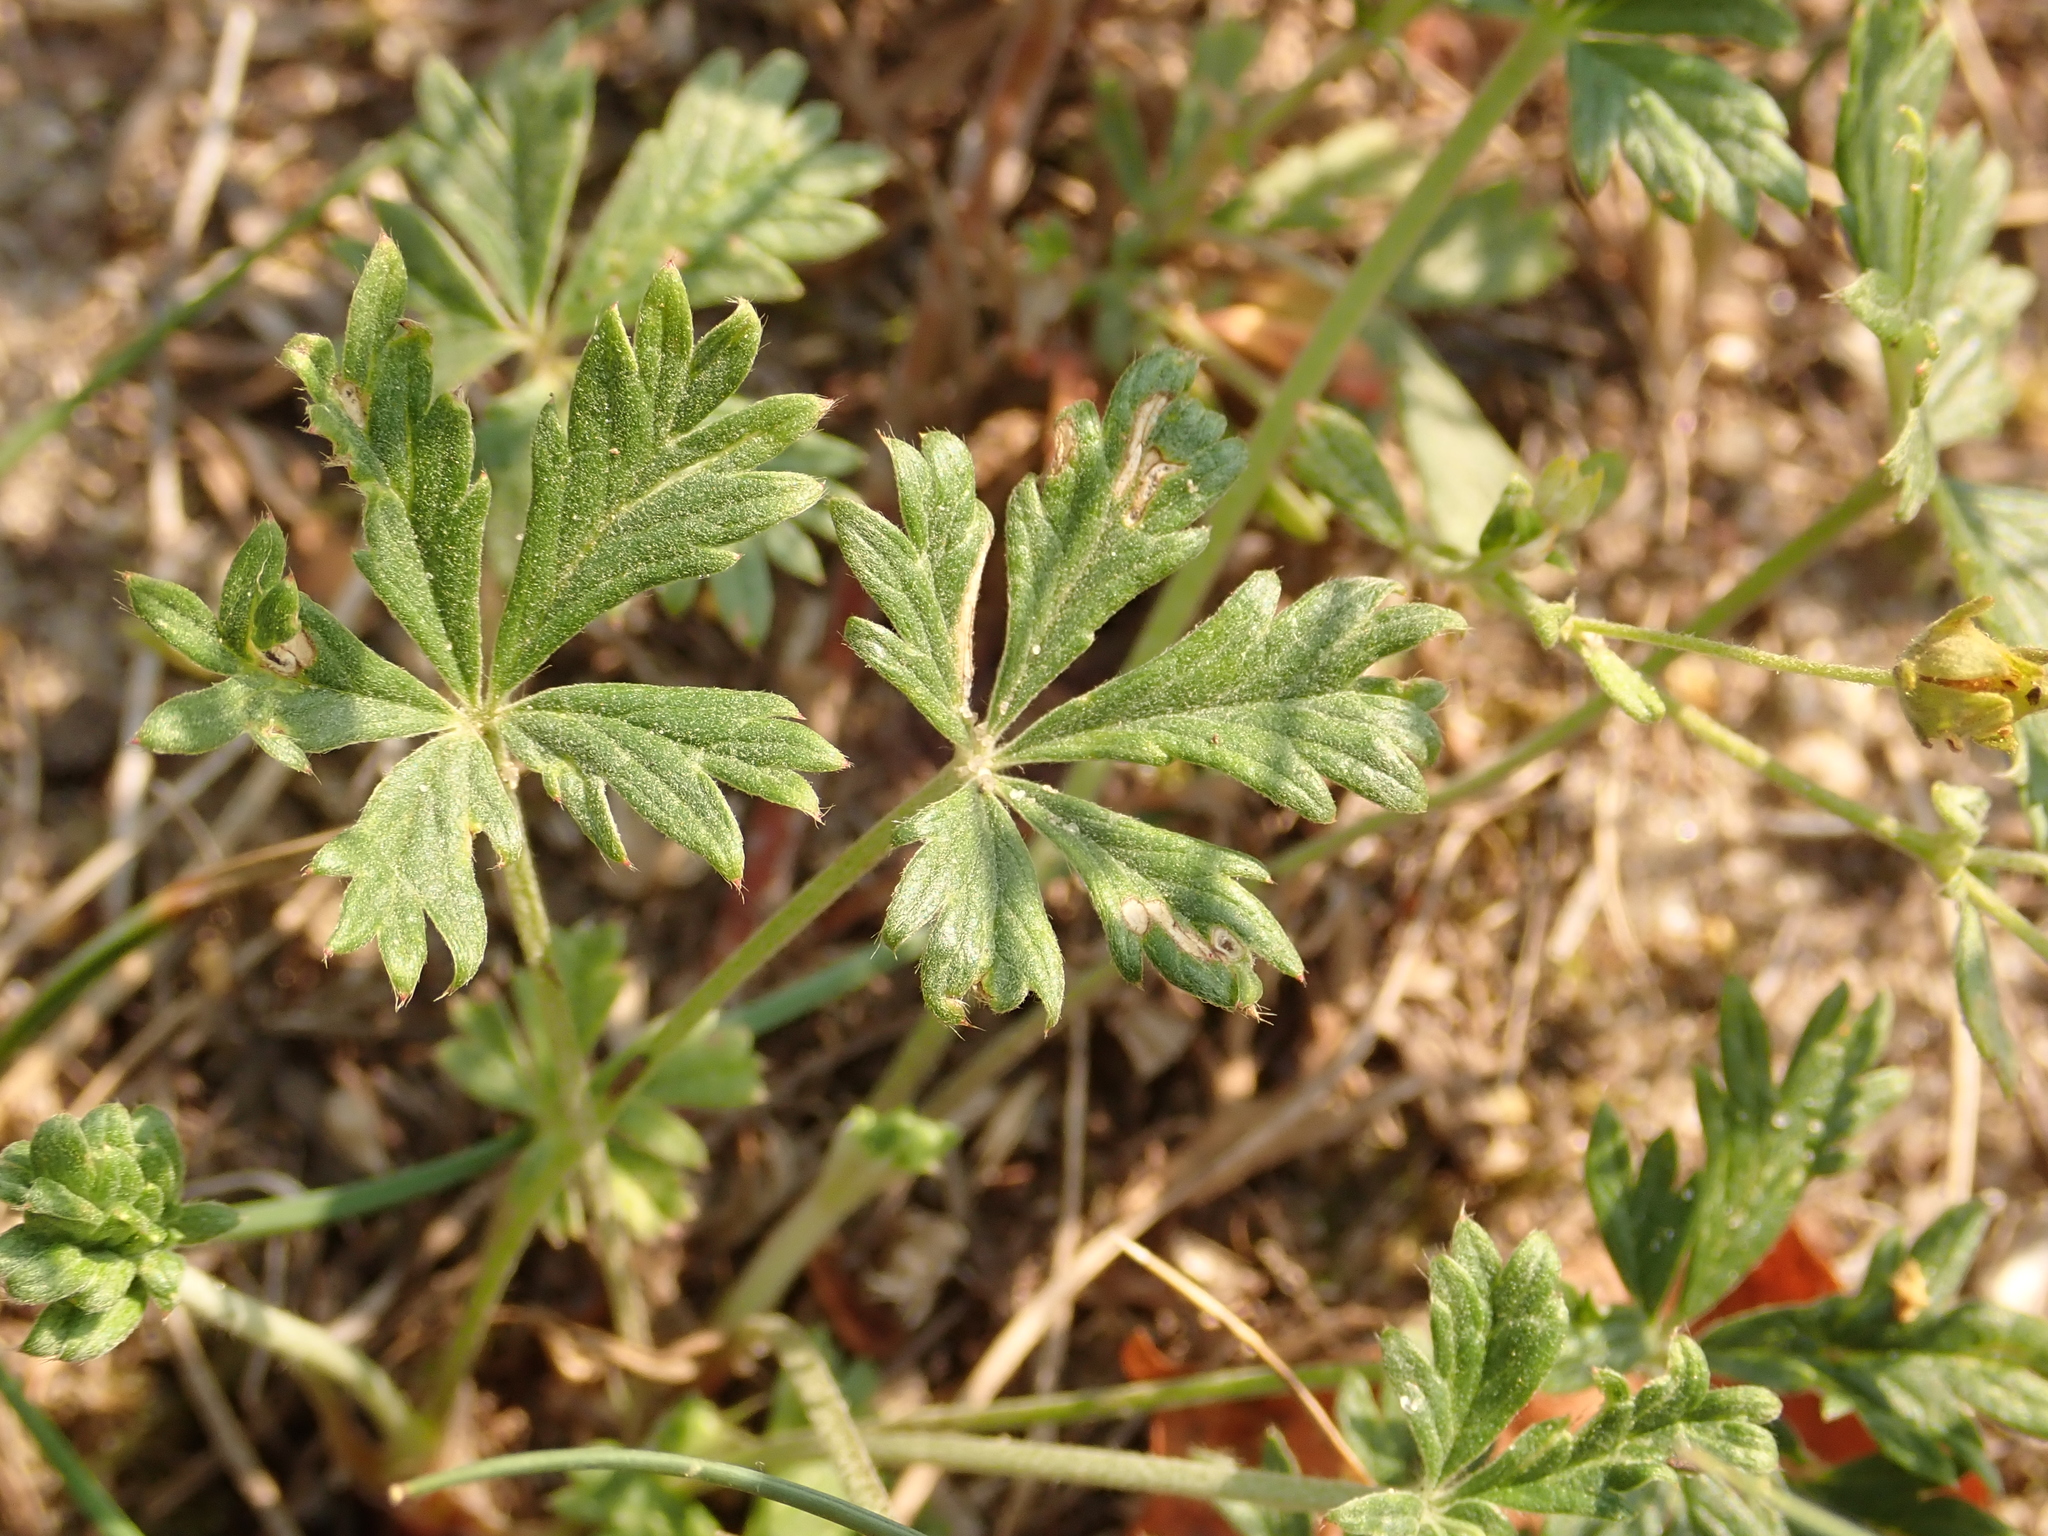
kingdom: Plantae
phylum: Tracheophyta
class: Magnoliopsida
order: Rosales
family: Rosaceae
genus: Potentilla
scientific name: Potentilla argentea
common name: Hoary cinquefoil
